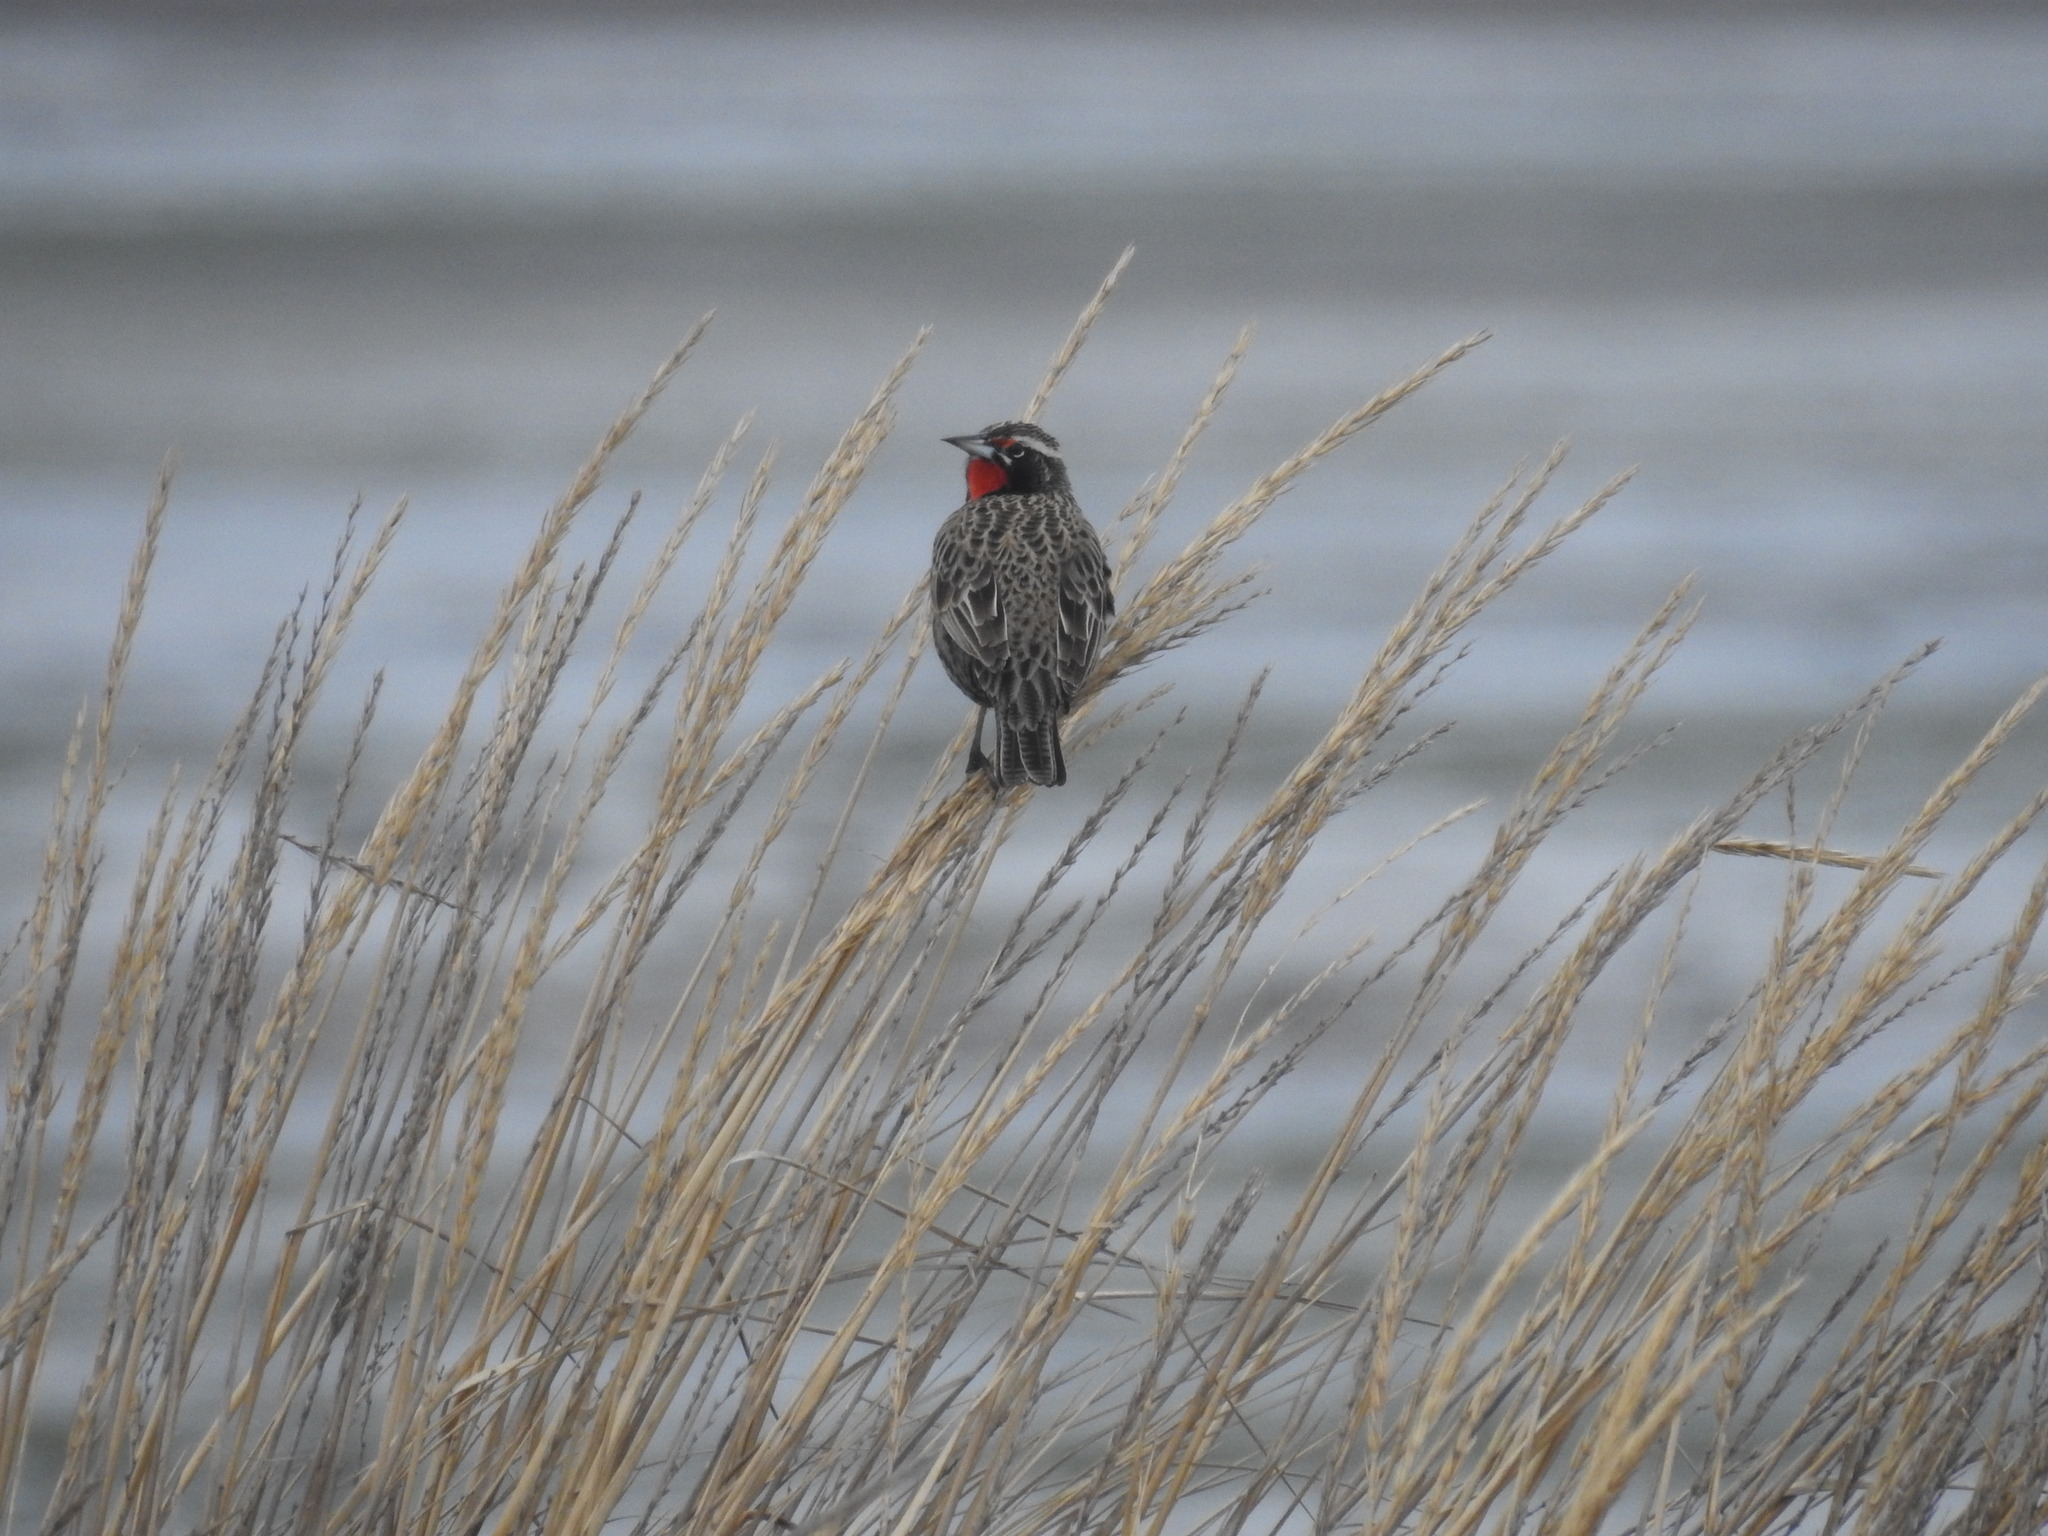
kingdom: Animalia
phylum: Chordata
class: Aves
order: Passeriformes
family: Icteridae
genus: Sturnella
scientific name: Sturnella loyca
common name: Long-tailed meadowlark
